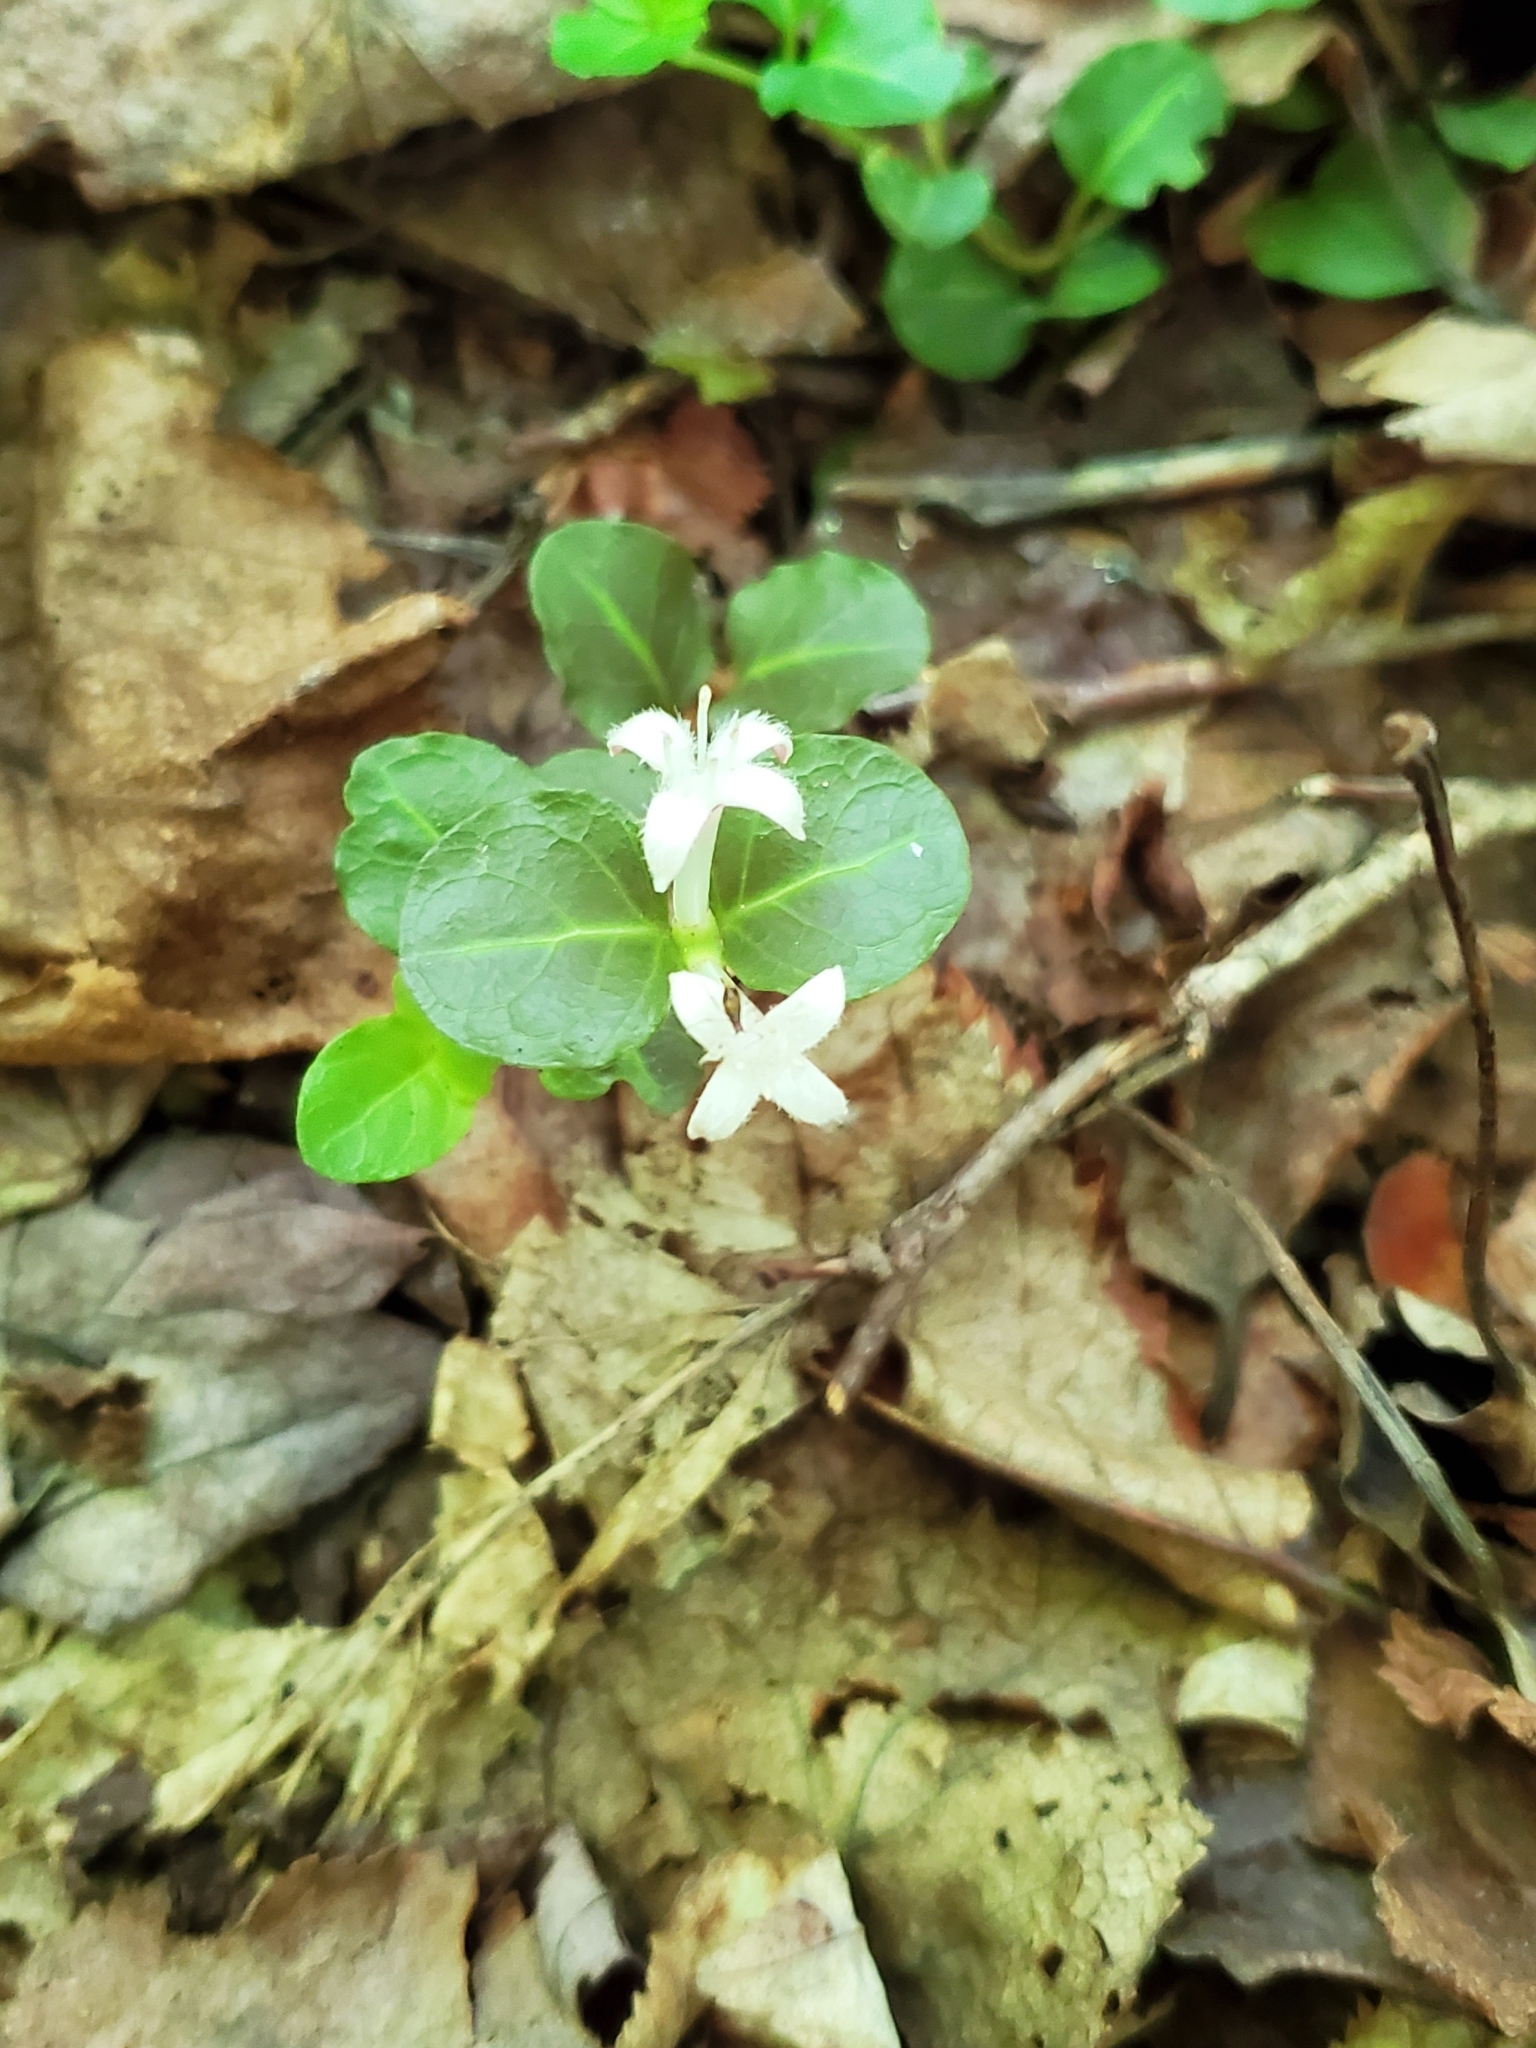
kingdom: Plantae
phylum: Tracheophyta
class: Magnoliopsida
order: Gentianales
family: Rubiaceae
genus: Mitchella
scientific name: Mitchella repens
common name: Partridge-berry
